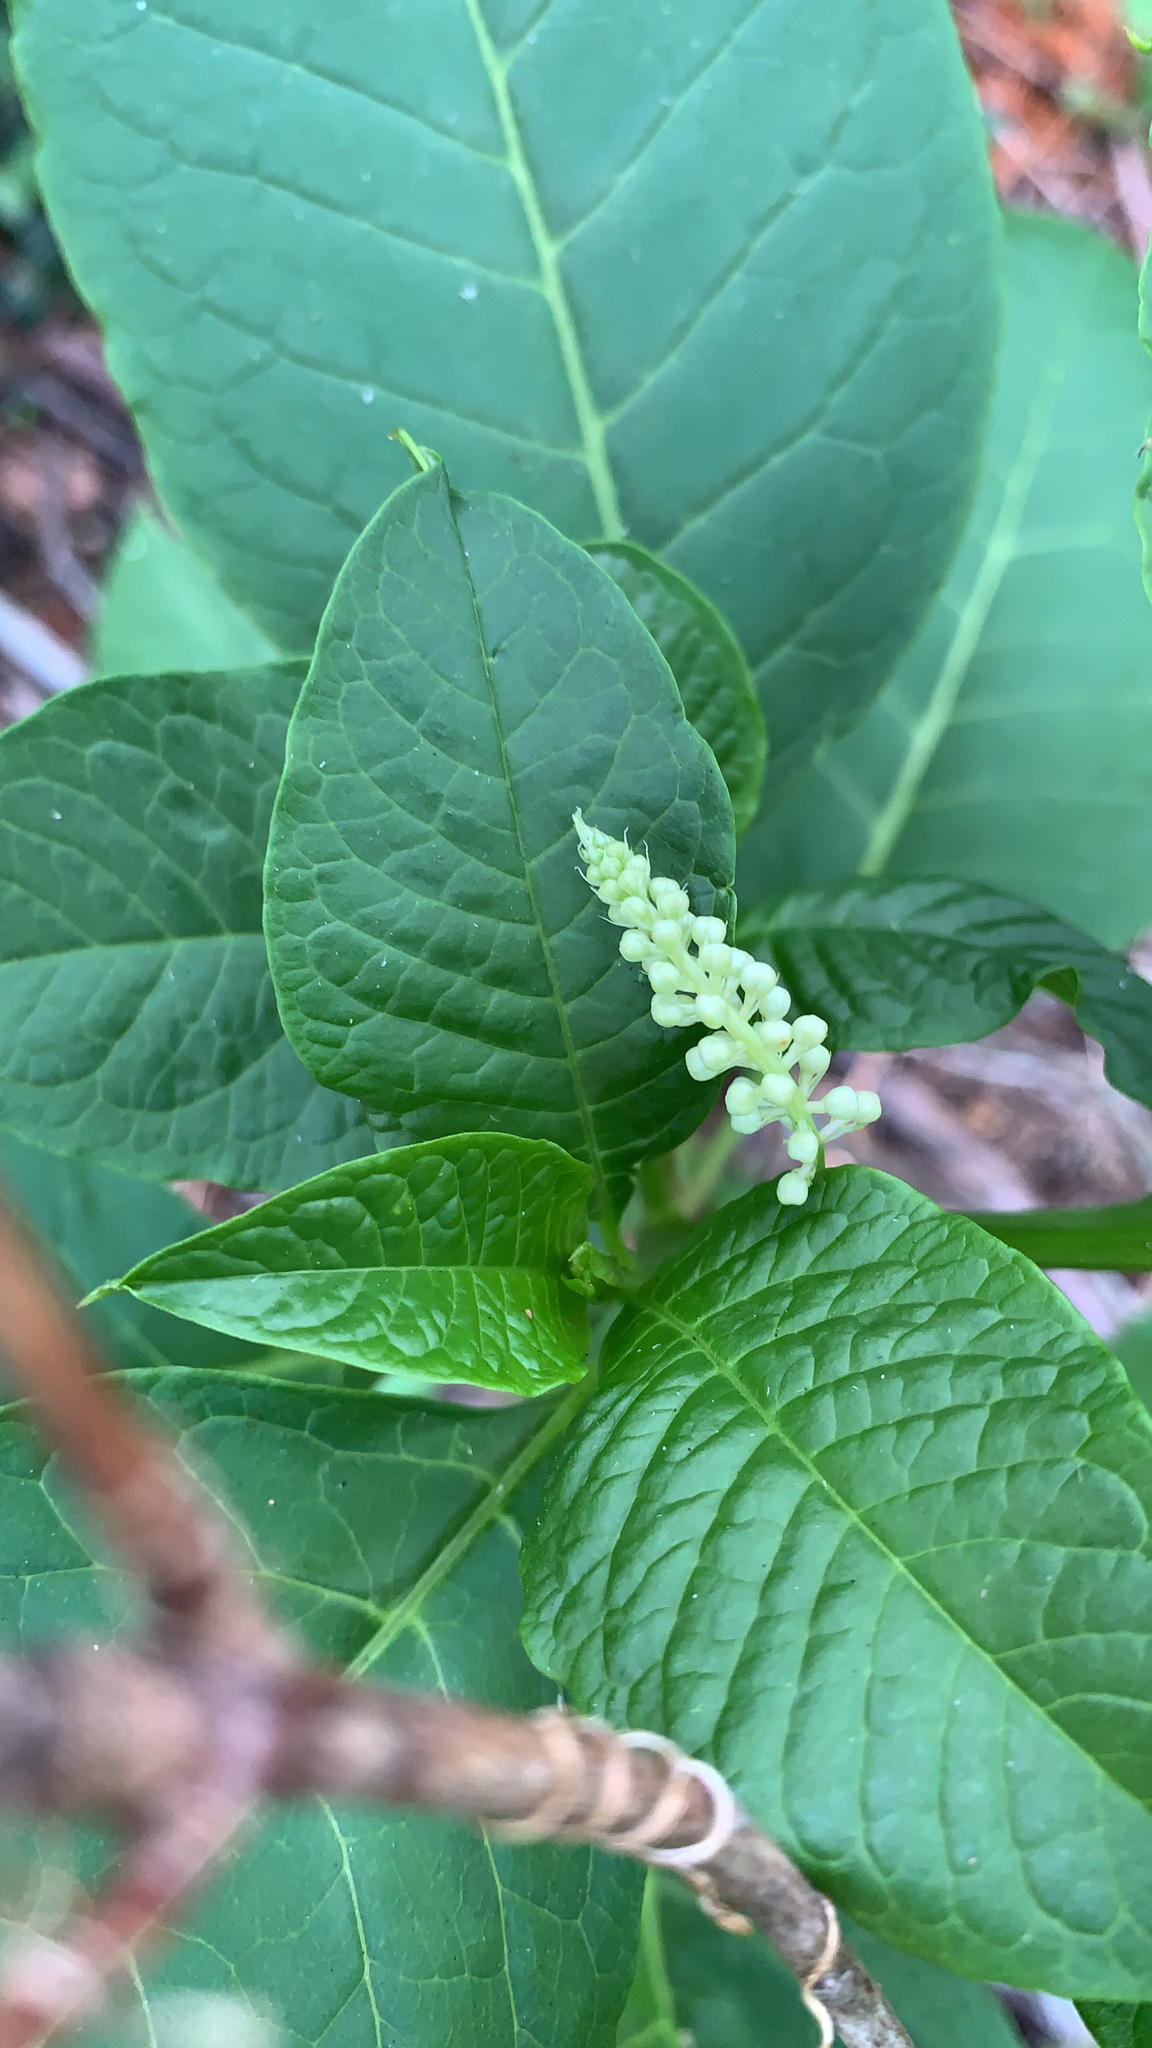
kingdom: Plantae
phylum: Tracheophyta
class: Magnoliopsida
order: Caryophyllales
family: Phytolaccaceae
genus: Phytolacca
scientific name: Phytolacca americana
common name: American pokeweed
